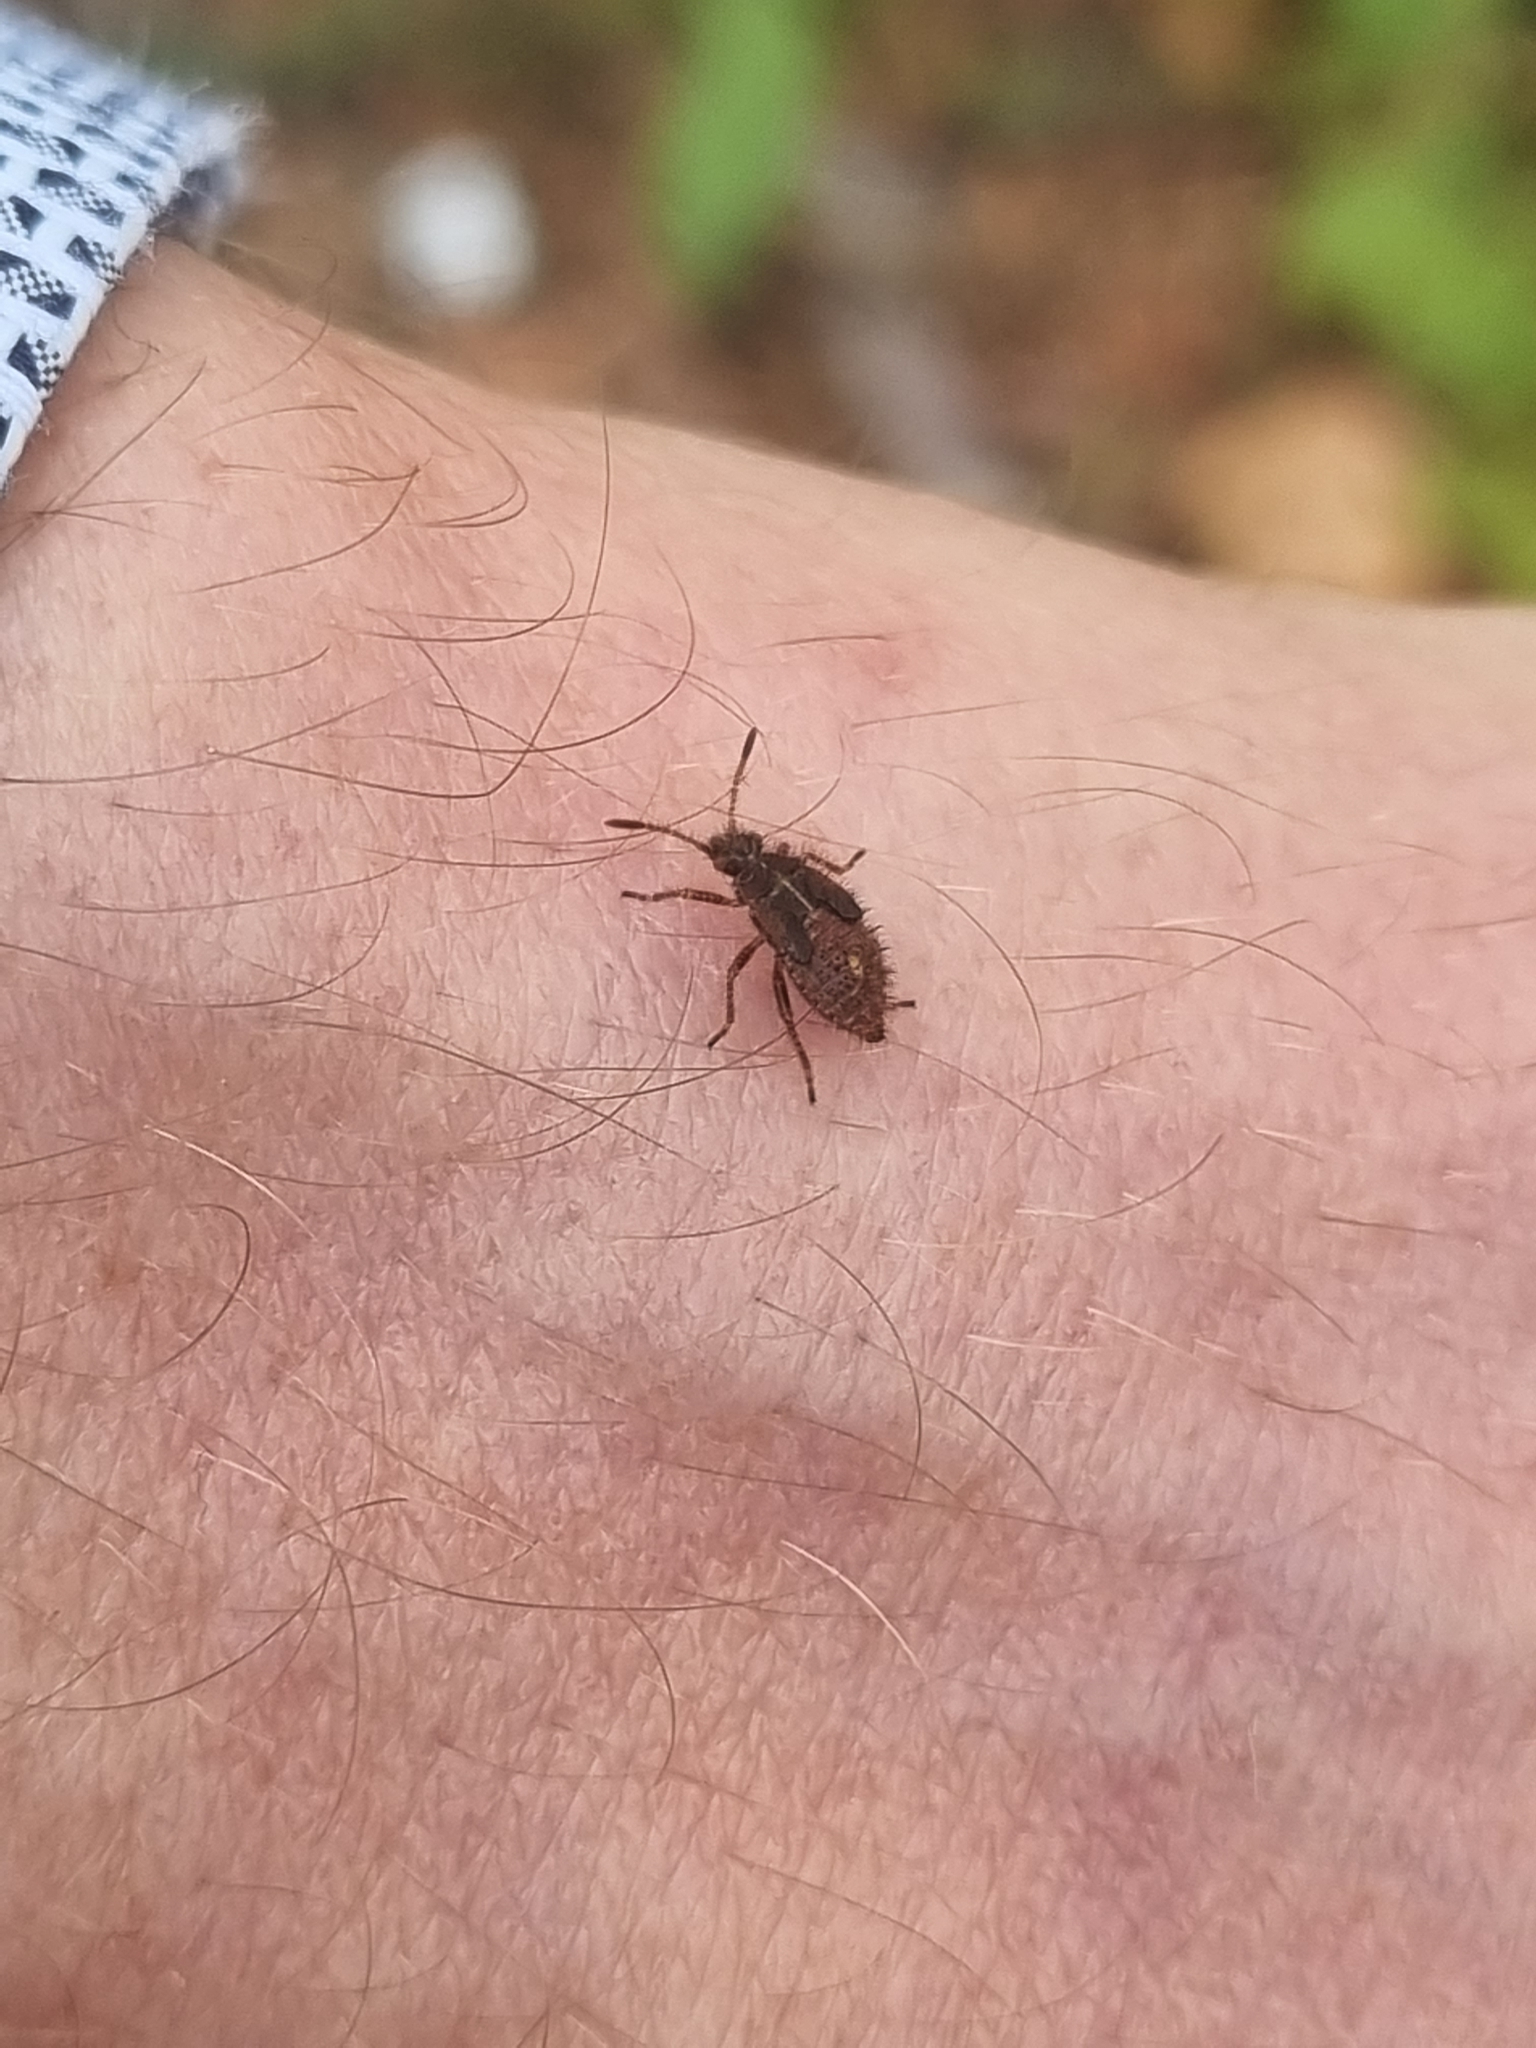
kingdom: Animalia
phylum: Arthropoda
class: Insecta
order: Hemiptera
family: Rhopalidae
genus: Rhopalus
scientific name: Rhopalus subrufus
